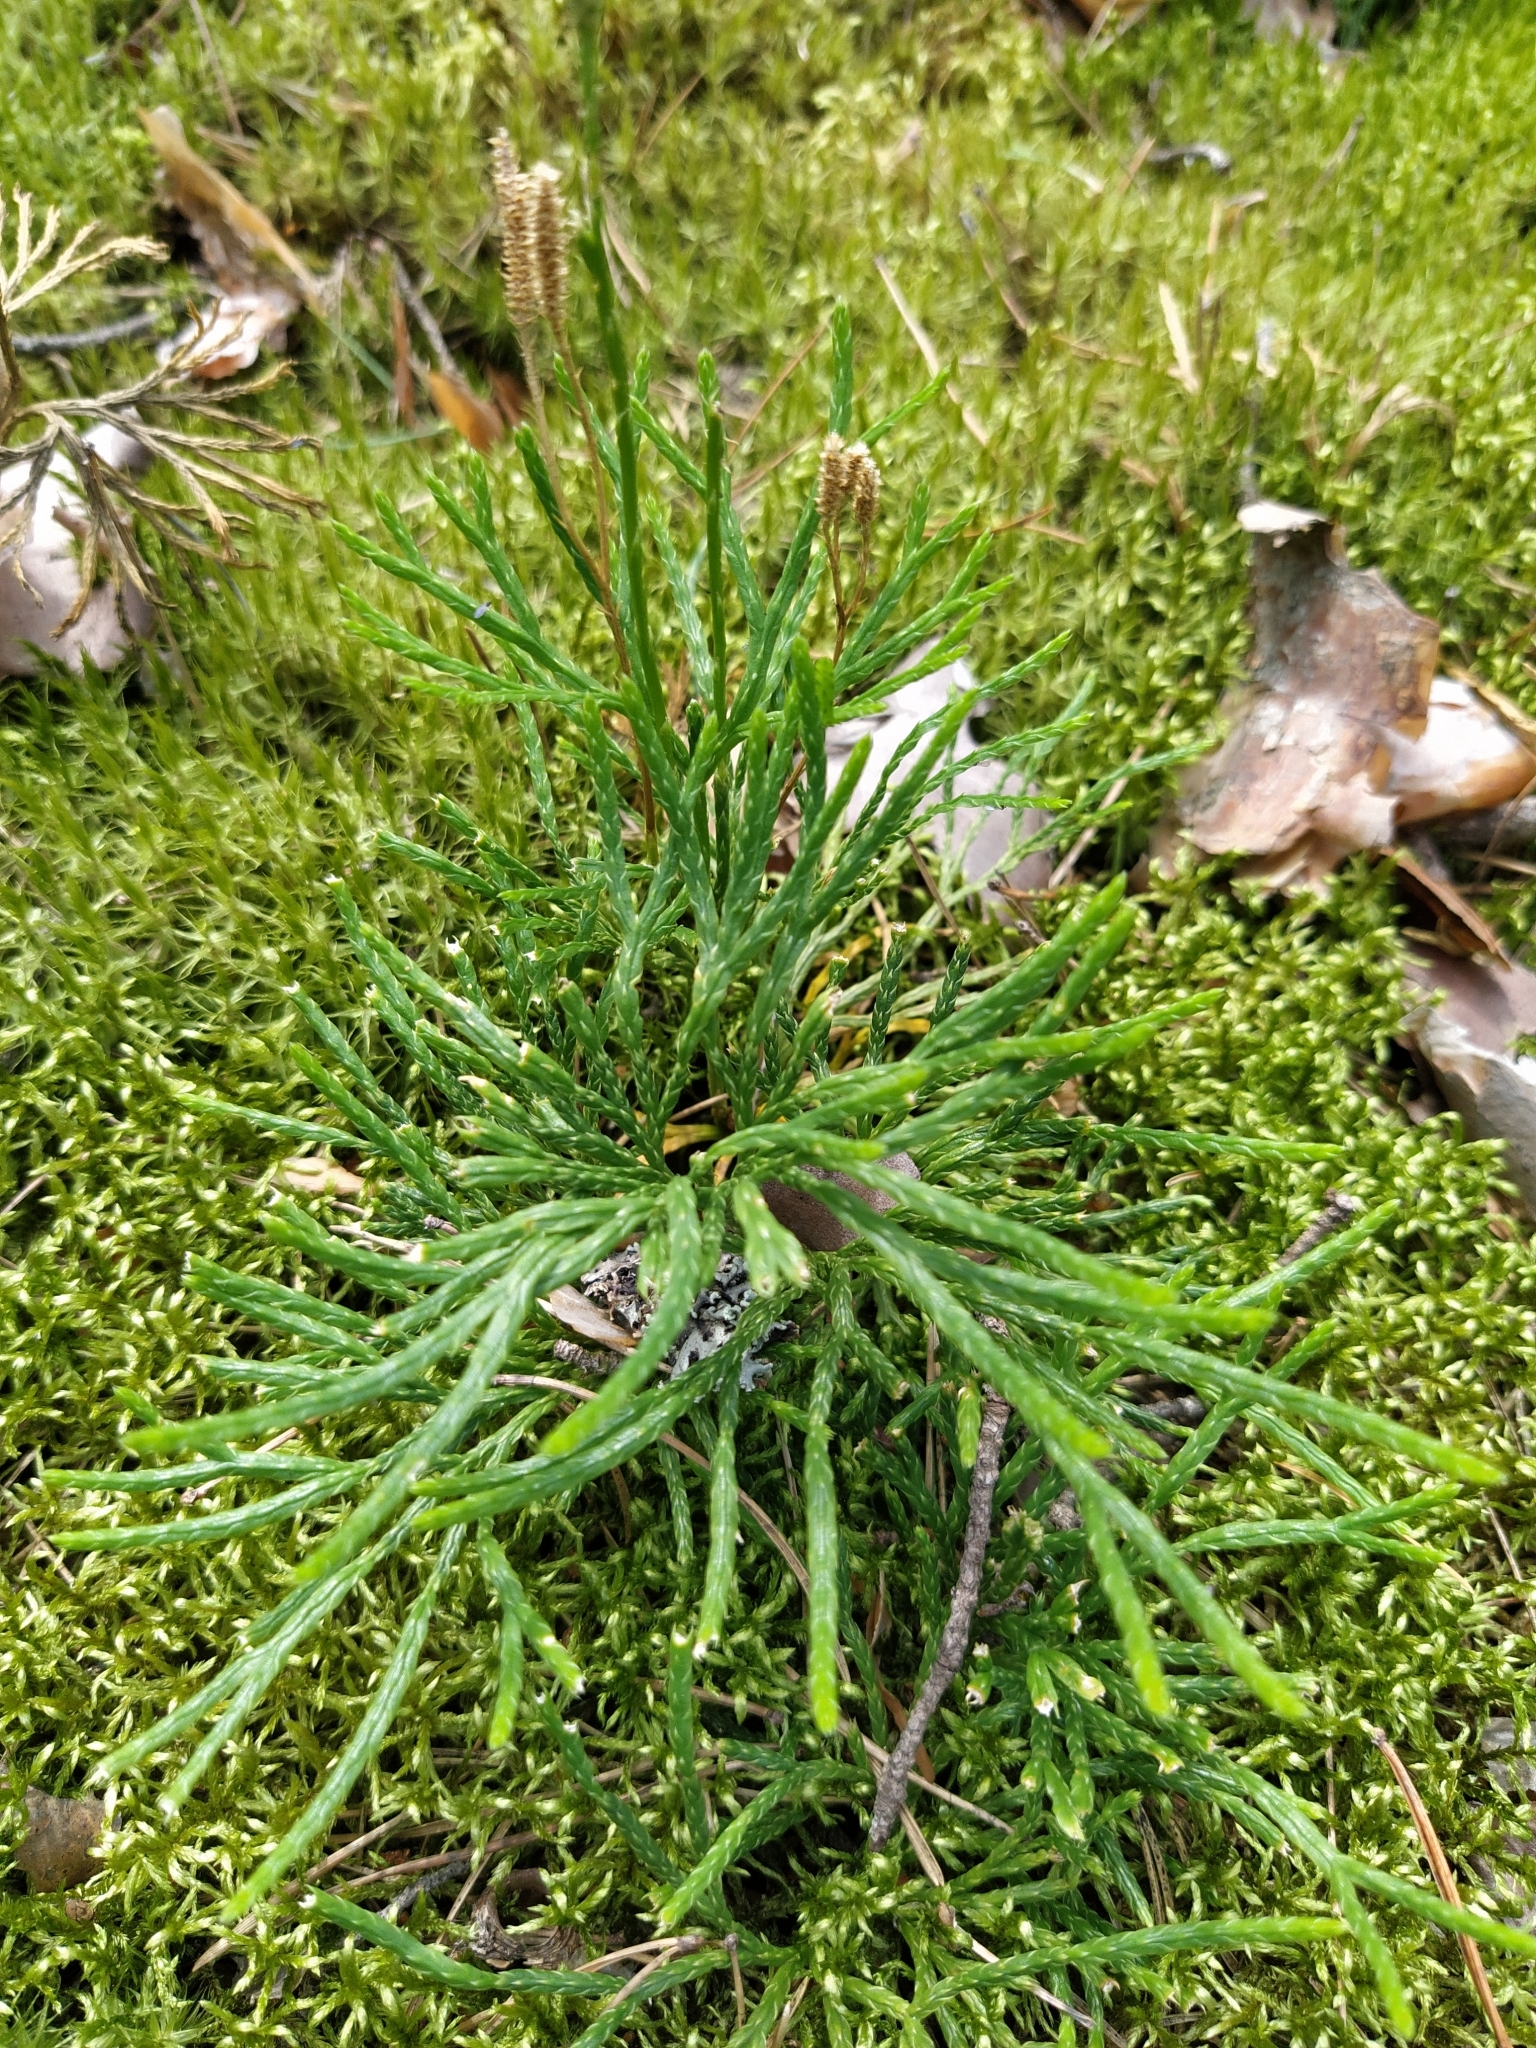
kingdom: Plantae
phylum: Tracheophyta
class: Lycopodiopsida
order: Lycopodiales
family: Lycopodiaceae
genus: Diphasiastrum
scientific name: Diphasiastrum complanatum
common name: Northern running-pine
